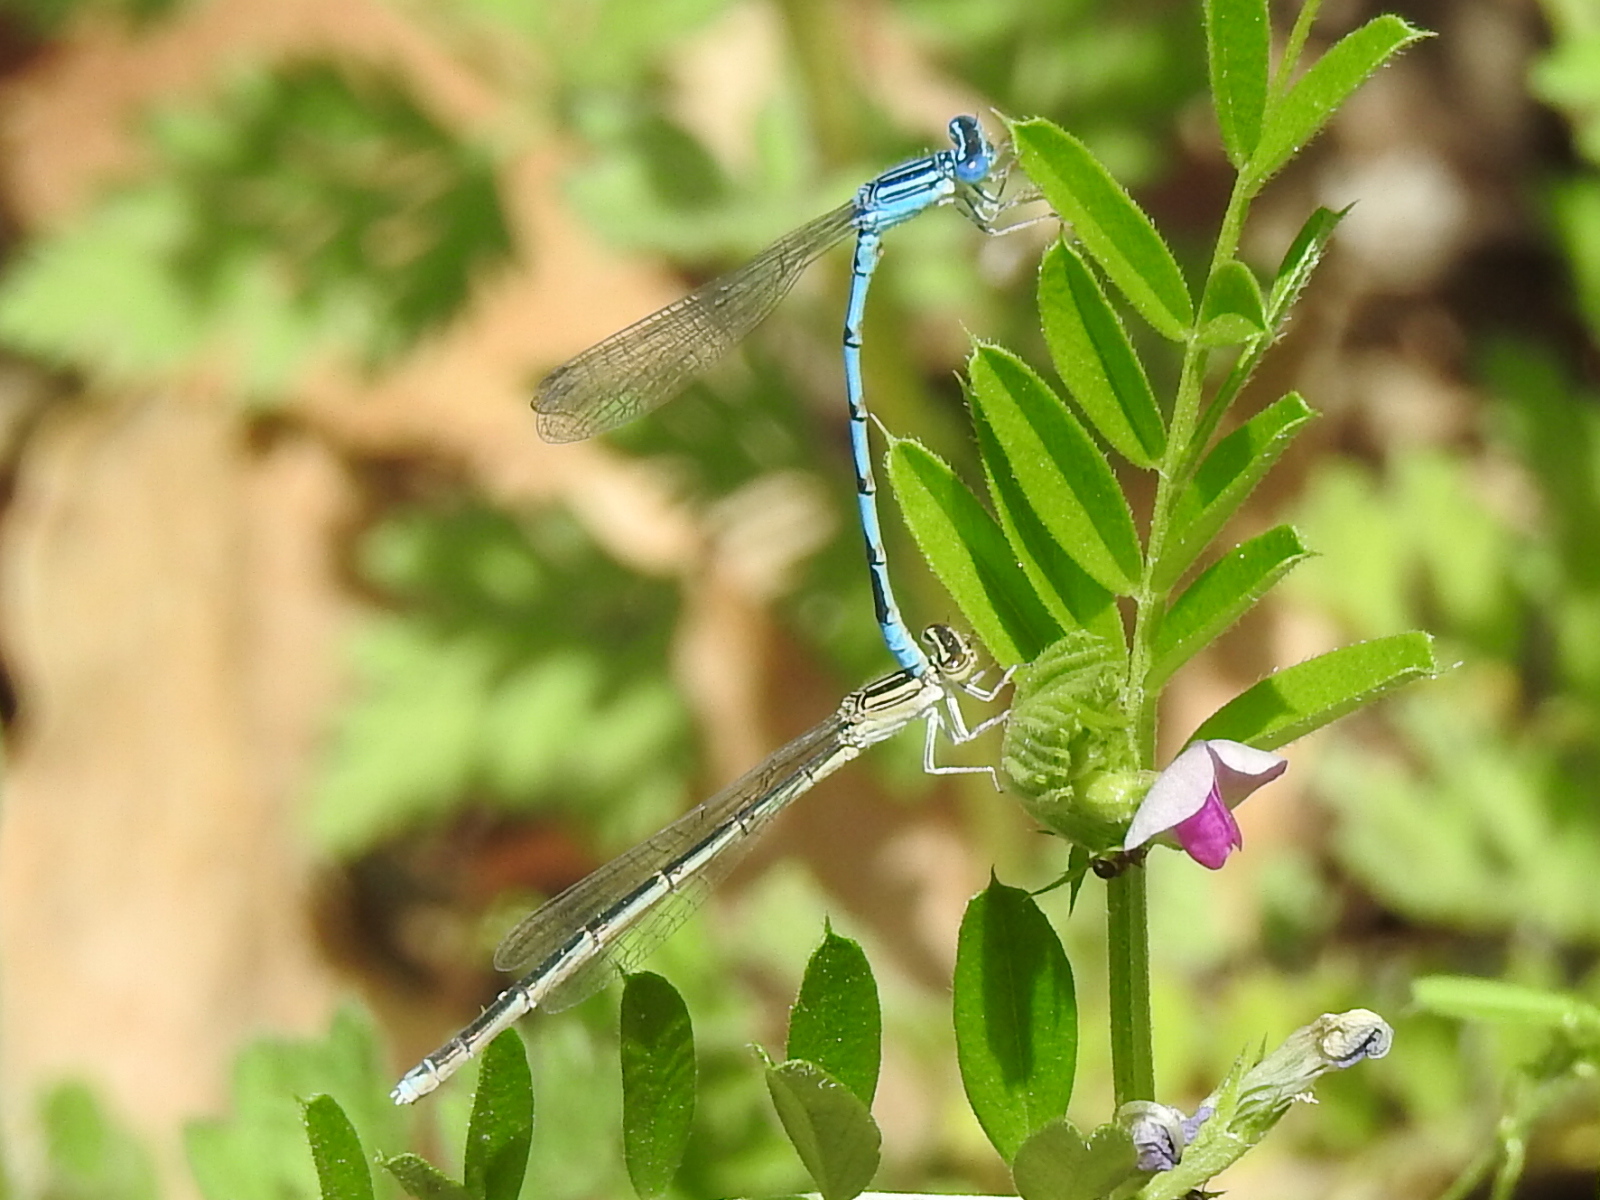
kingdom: Animalia
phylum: Arthropoda
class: Insecta
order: Odonata
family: Coenagrionidae
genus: Enallagma
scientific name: Enallagma basidens
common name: Double-striped bluet
